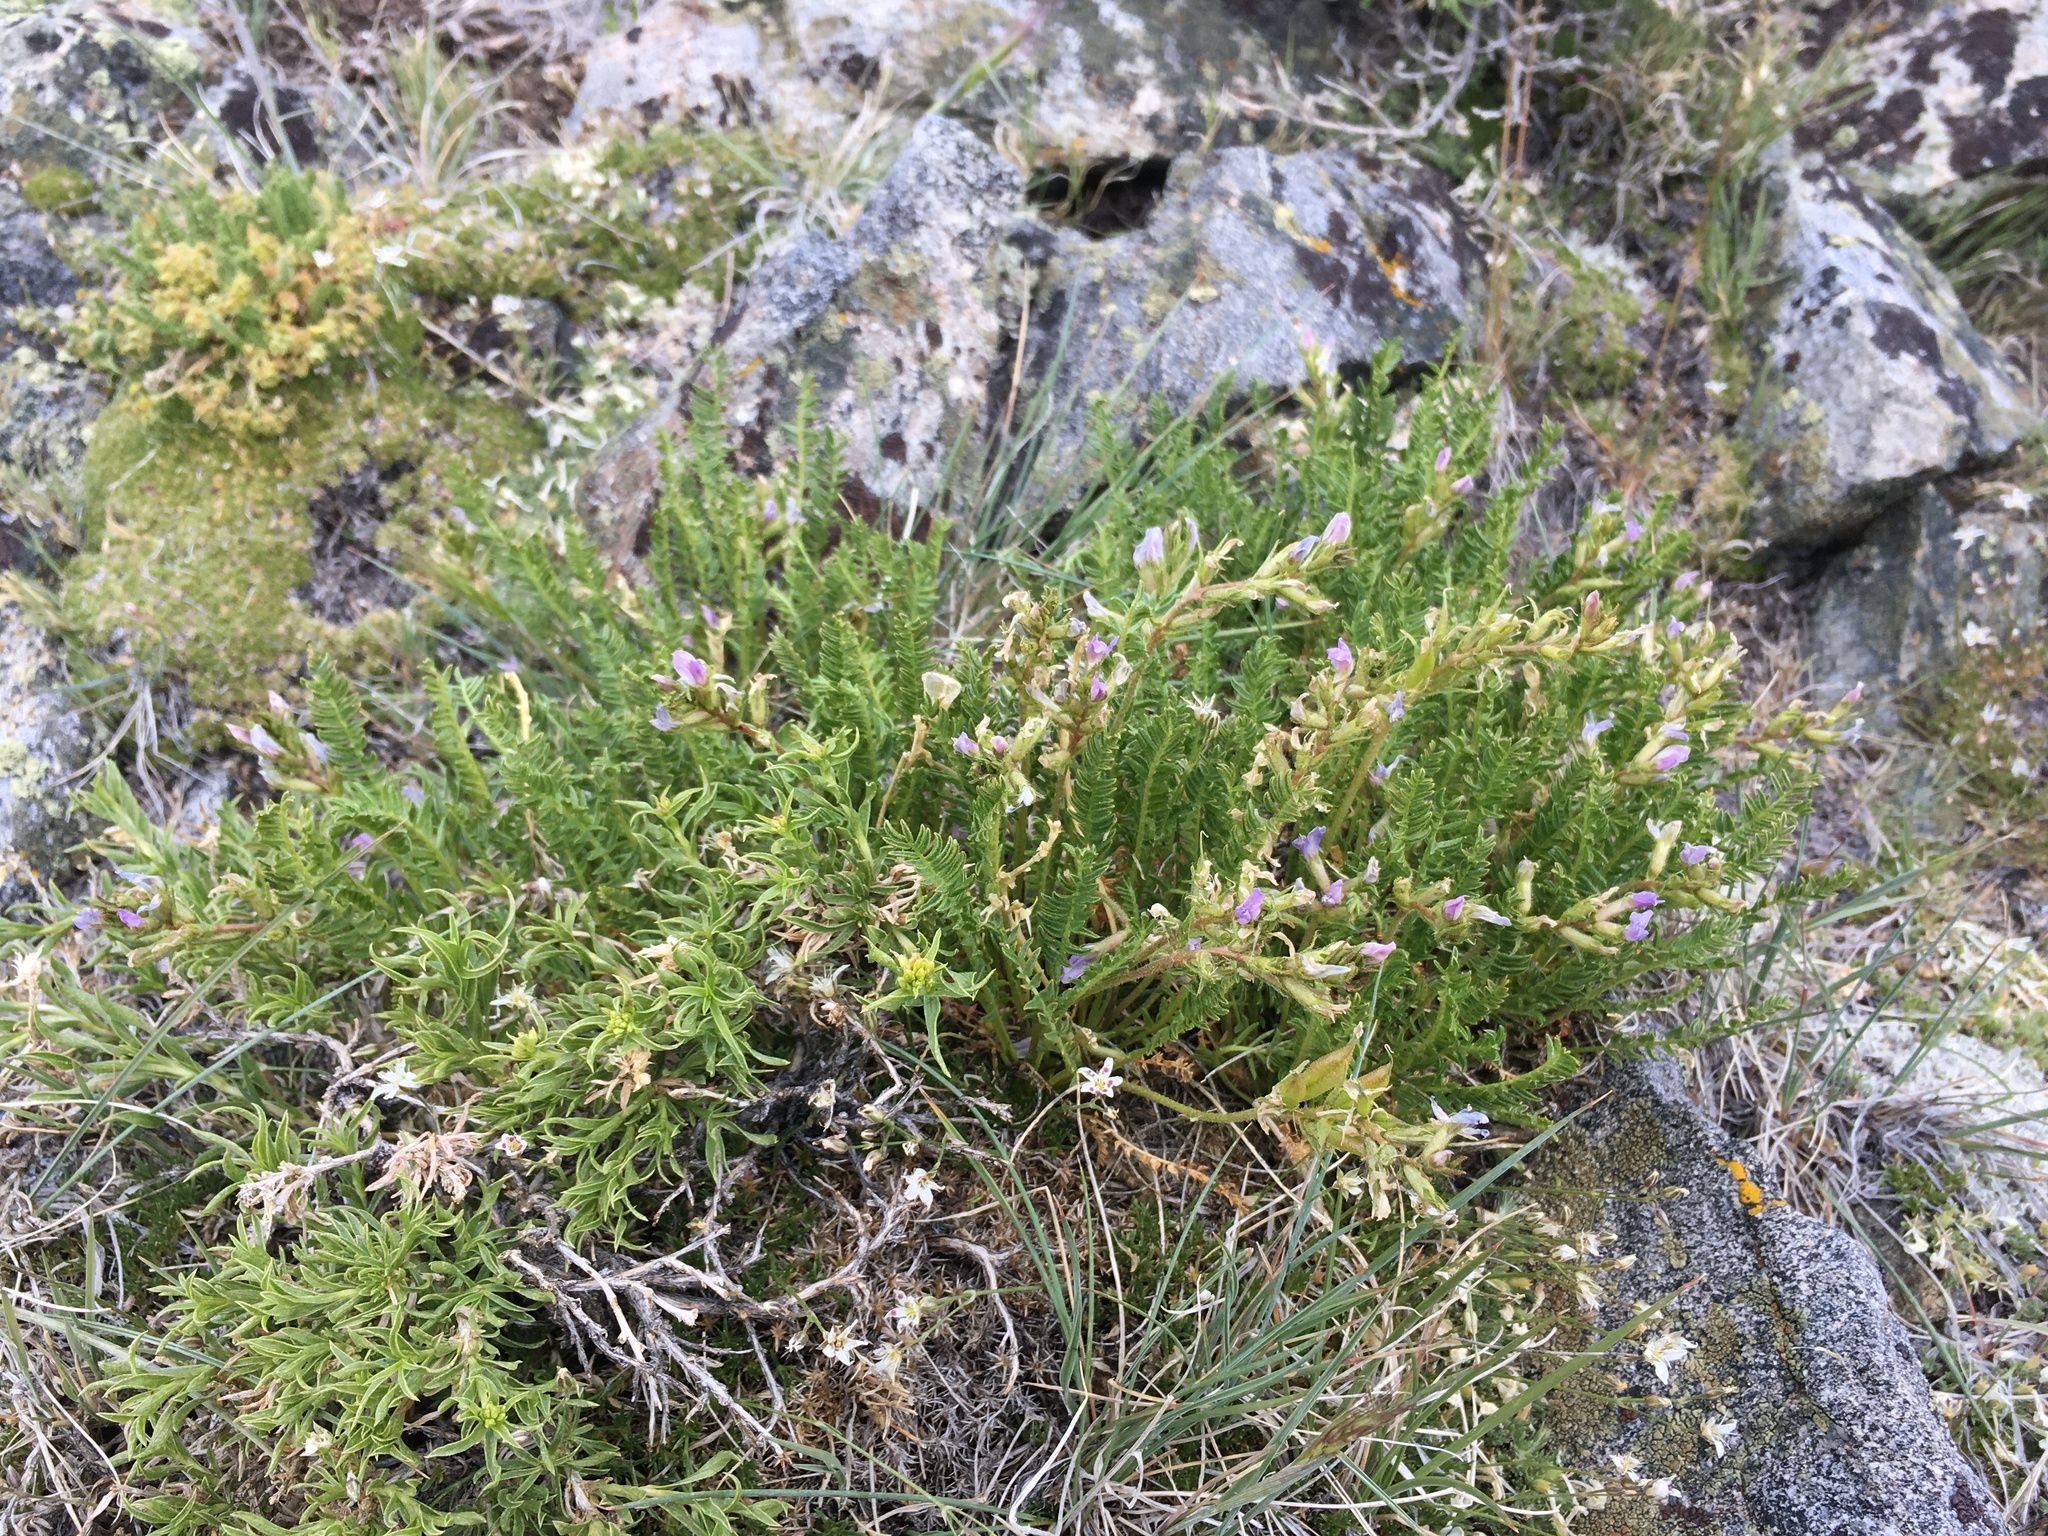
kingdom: Plantae
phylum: Tracheophyta
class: Magnoliopsida
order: Fabales
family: Fabaceae
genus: Oxytropis
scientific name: Oxytropis borealis
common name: Boreal locoweed
